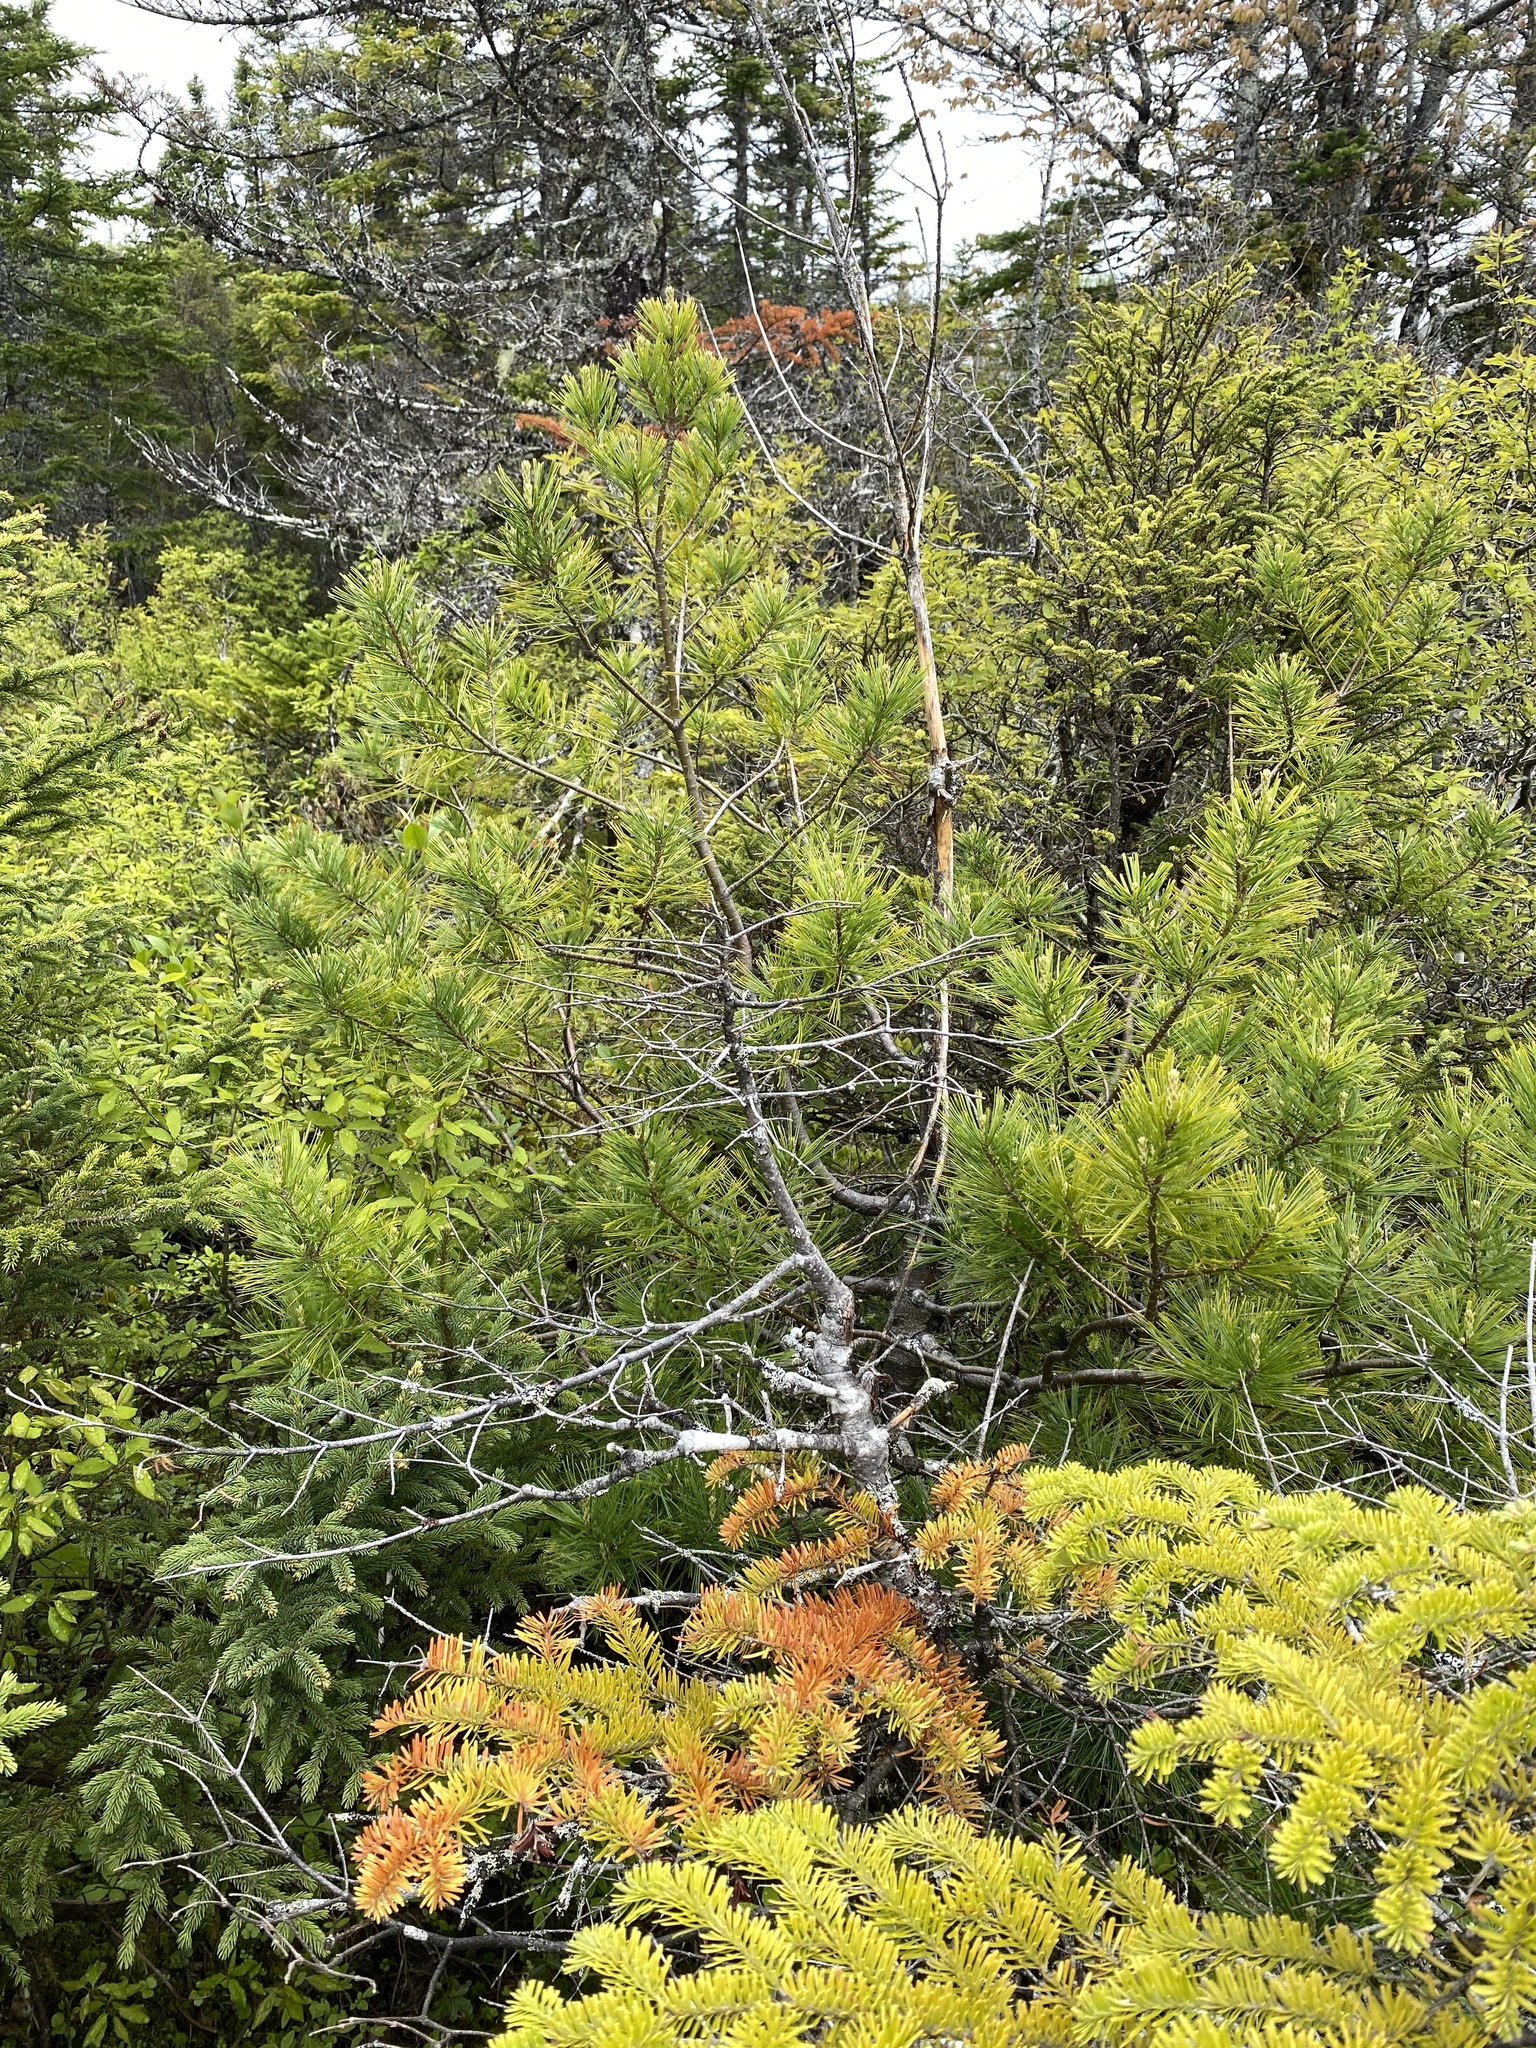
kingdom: Plantae
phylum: Tracheophyta
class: Pinopsida
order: Pinales
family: Pinaceae
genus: Pinus
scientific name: Pinus strobus
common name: Weymouth pine
